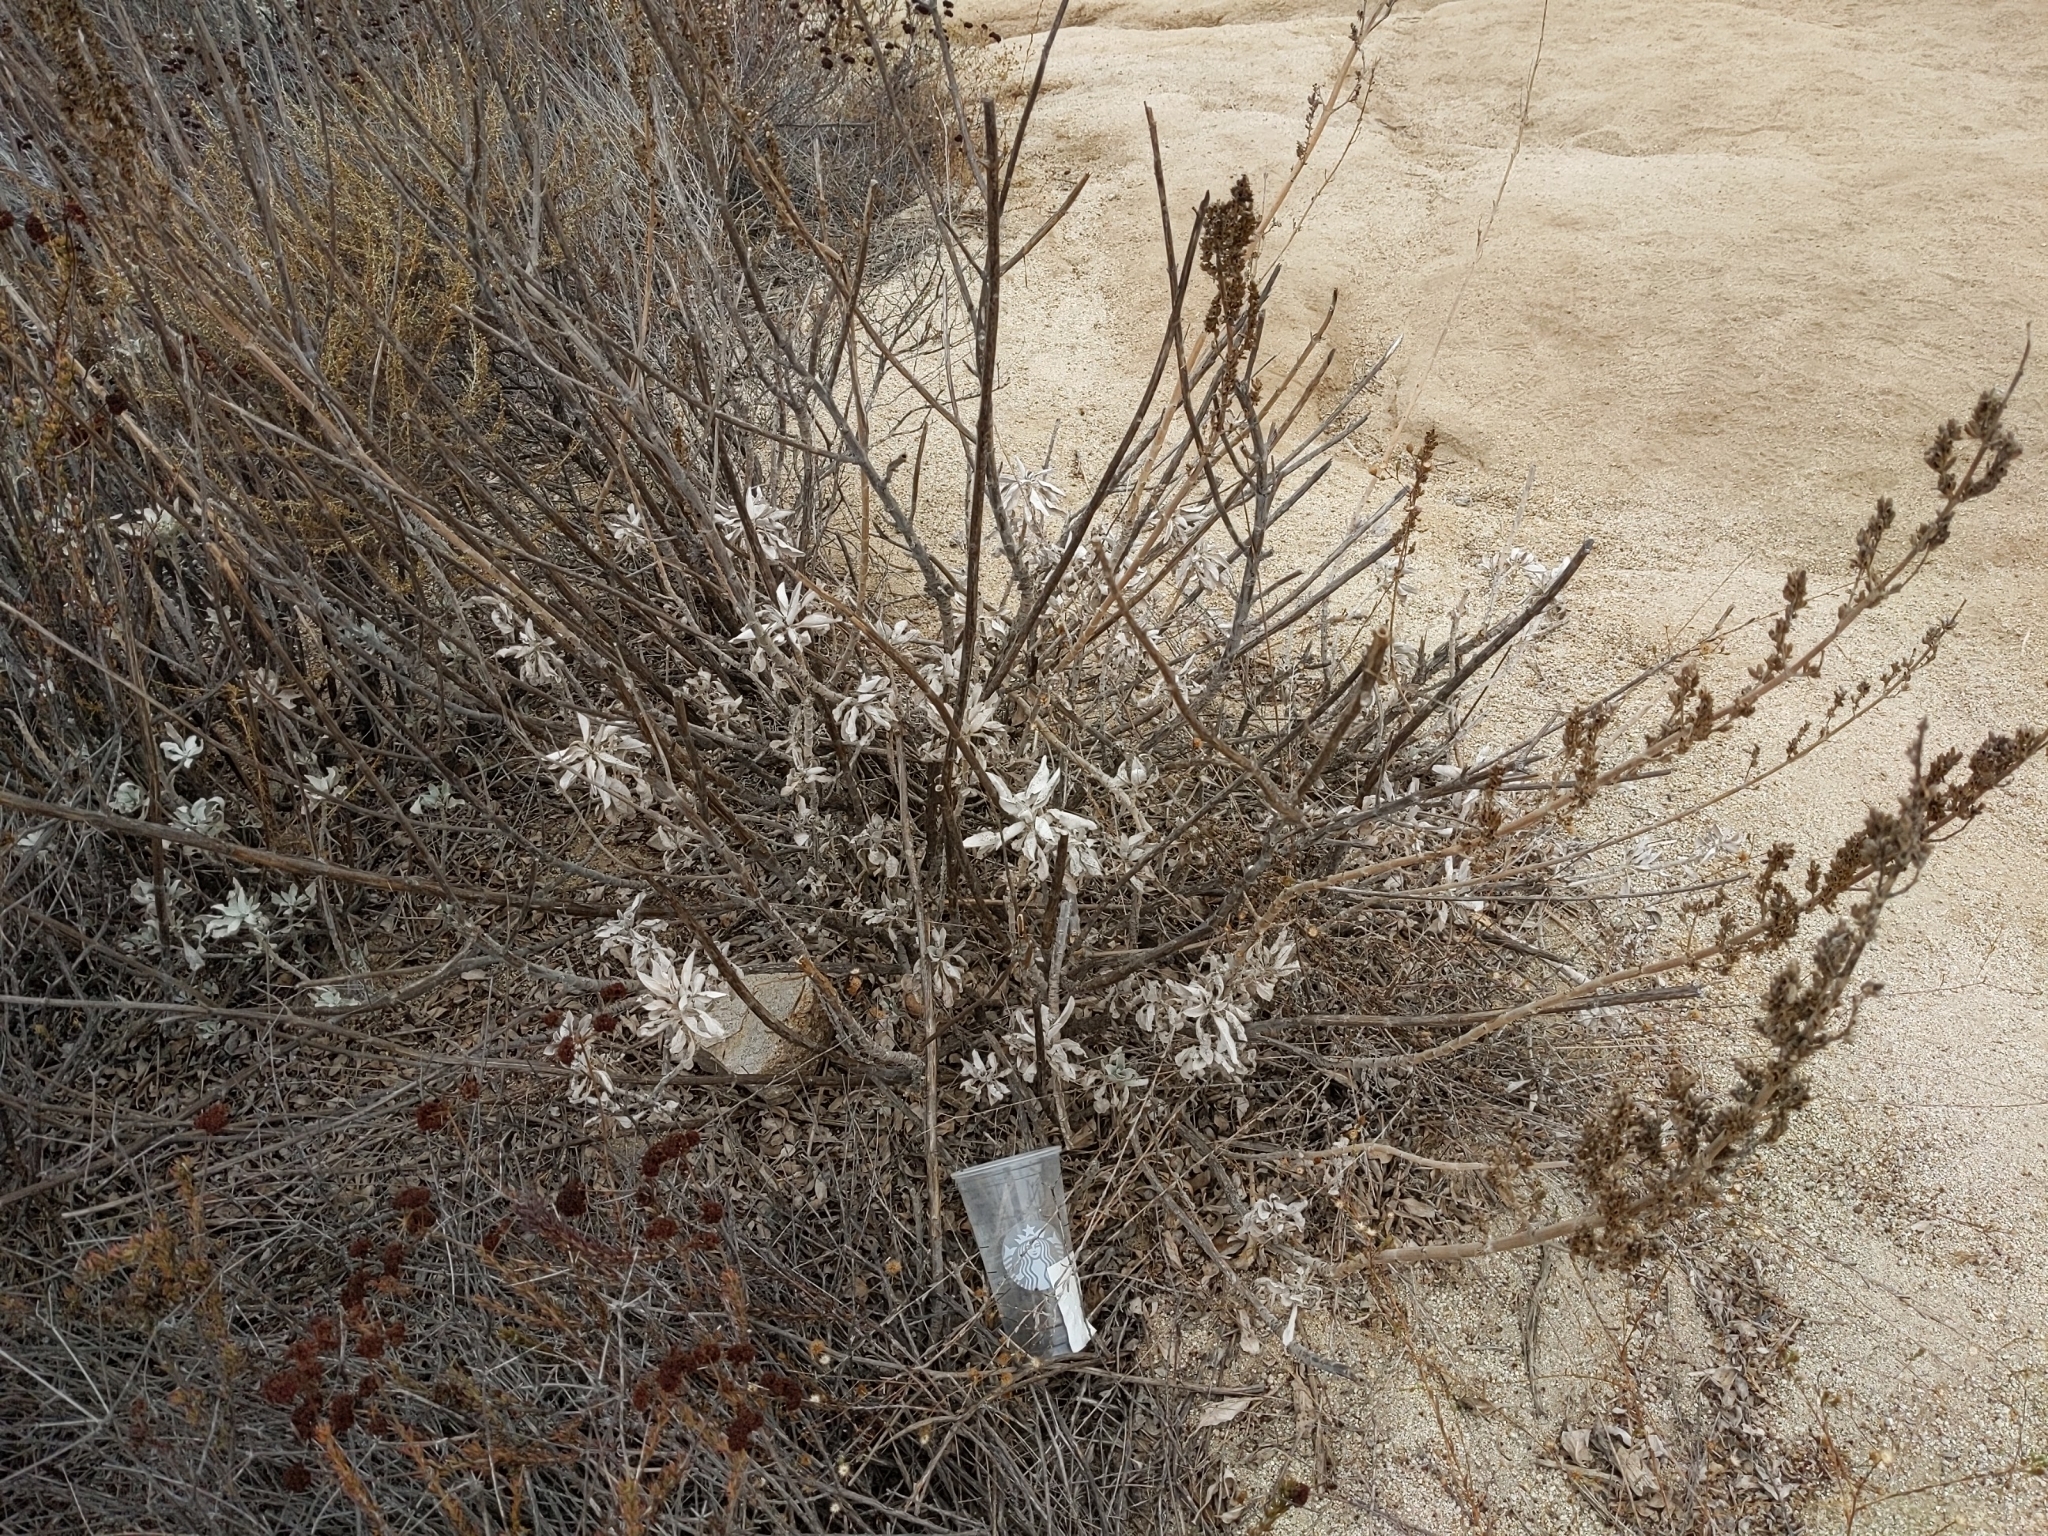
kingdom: Plantae
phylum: Tracheophyta
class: Magnoliopsida
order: Lamiales
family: Lamiaceae
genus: Salvia
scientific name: Salvia apiana
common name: White sage
